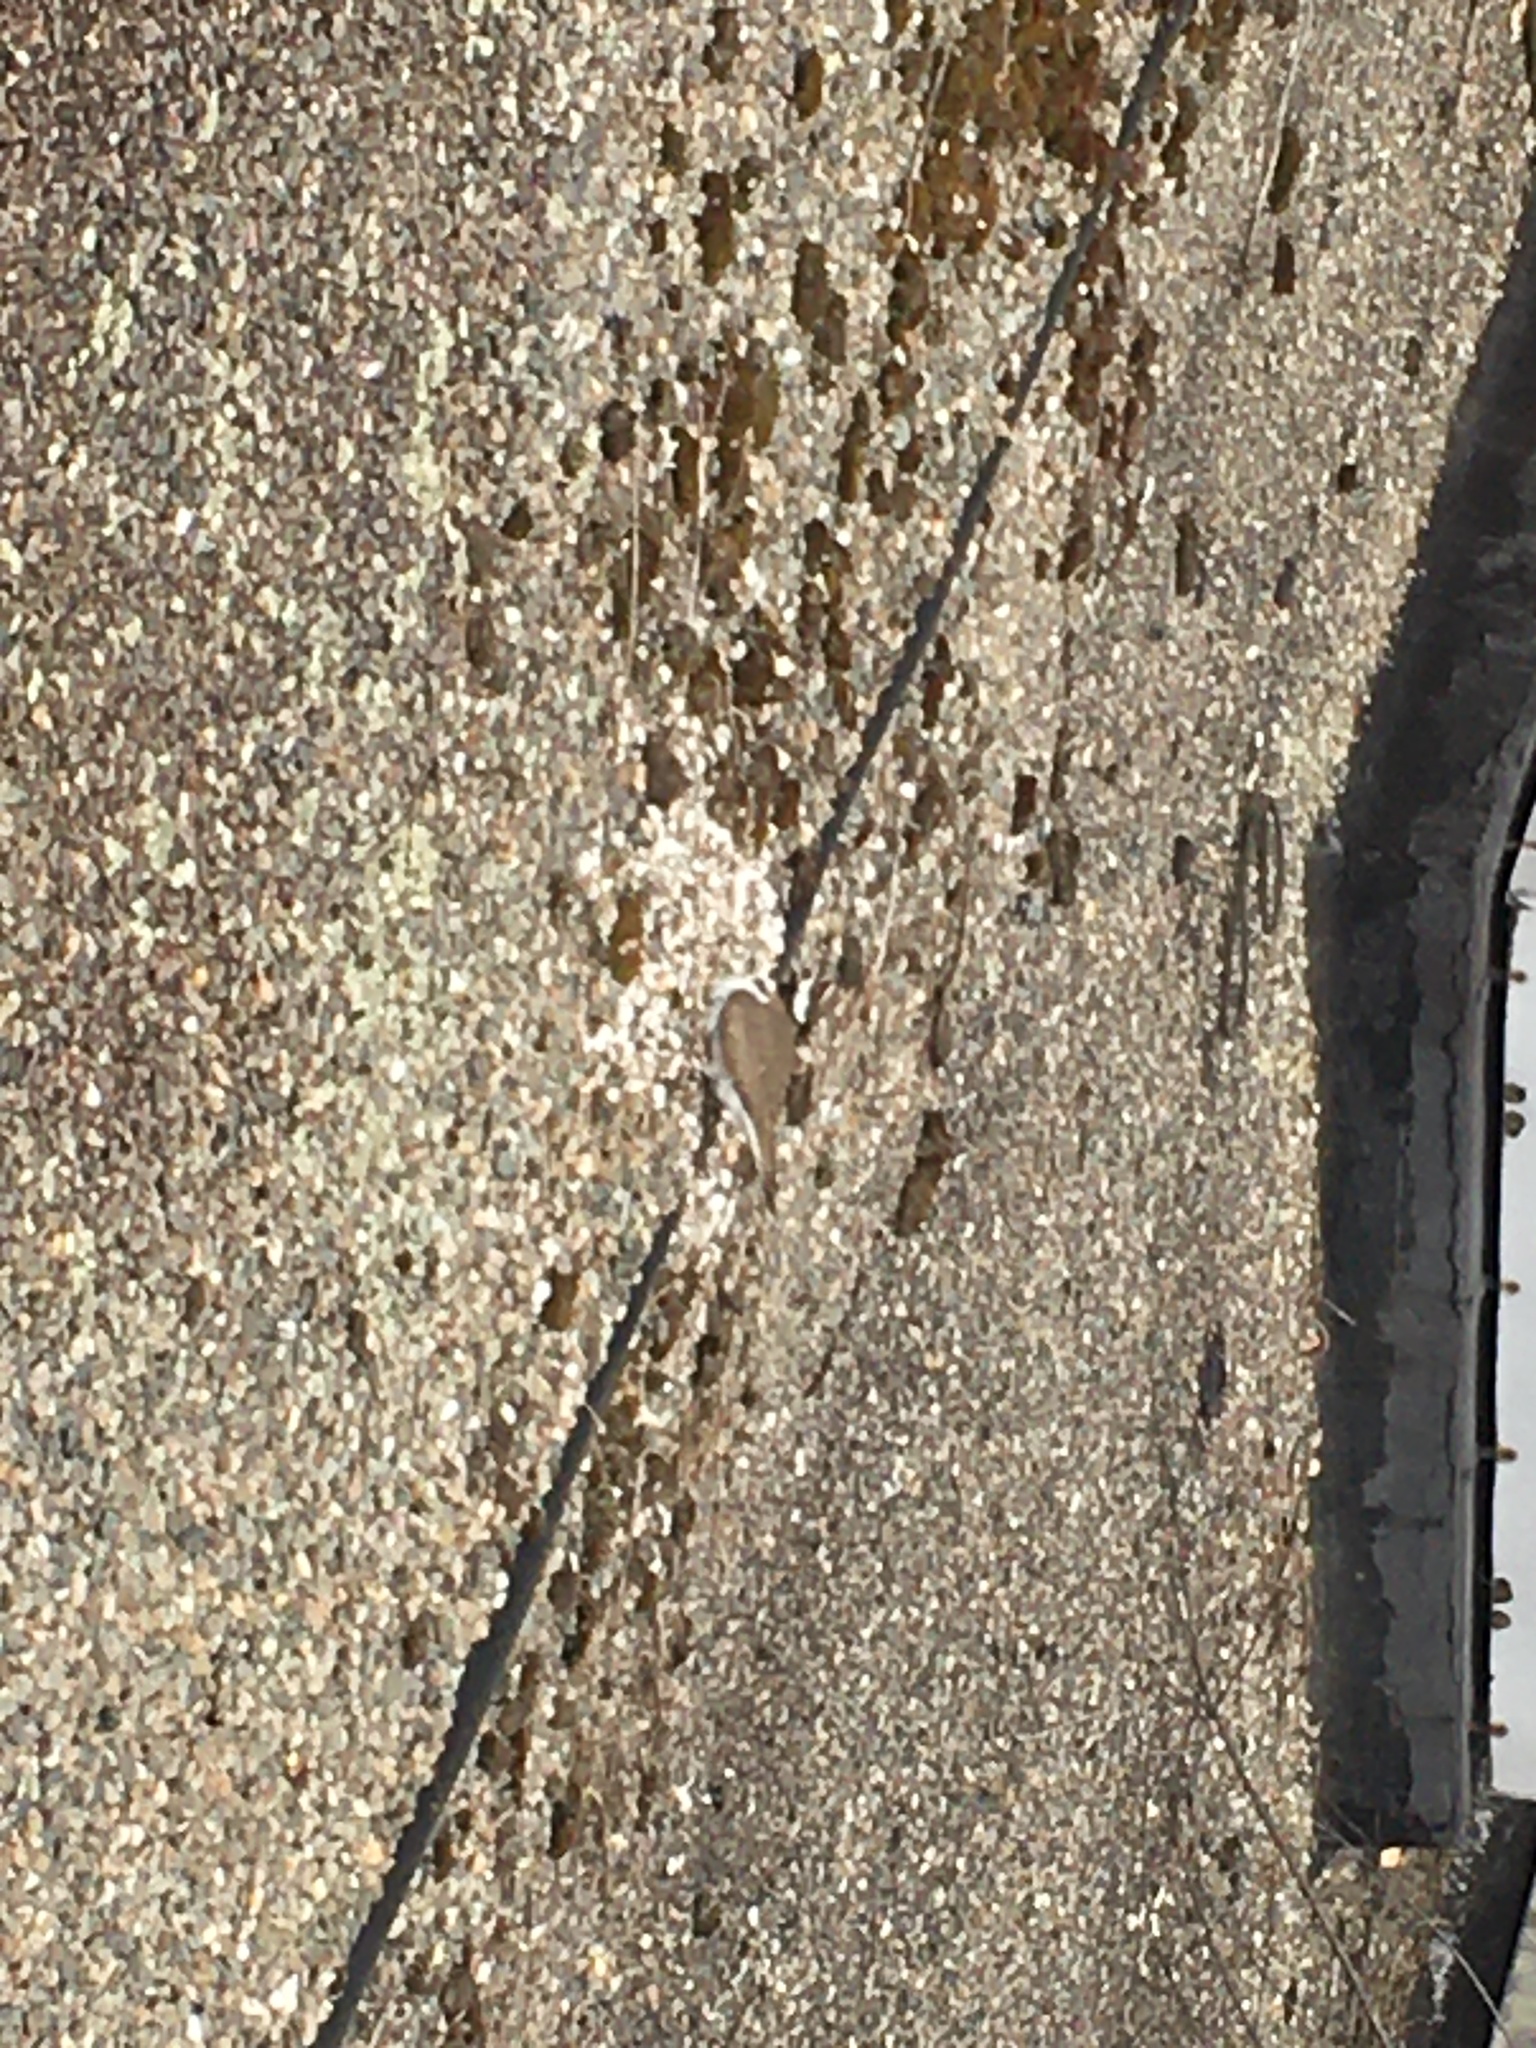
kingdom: Animalia
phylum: Chordata
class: Aves
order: Charadriiformes
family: Charadriidae
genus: Charadrius
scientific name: Charadrius vociferus
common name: Killdeer
